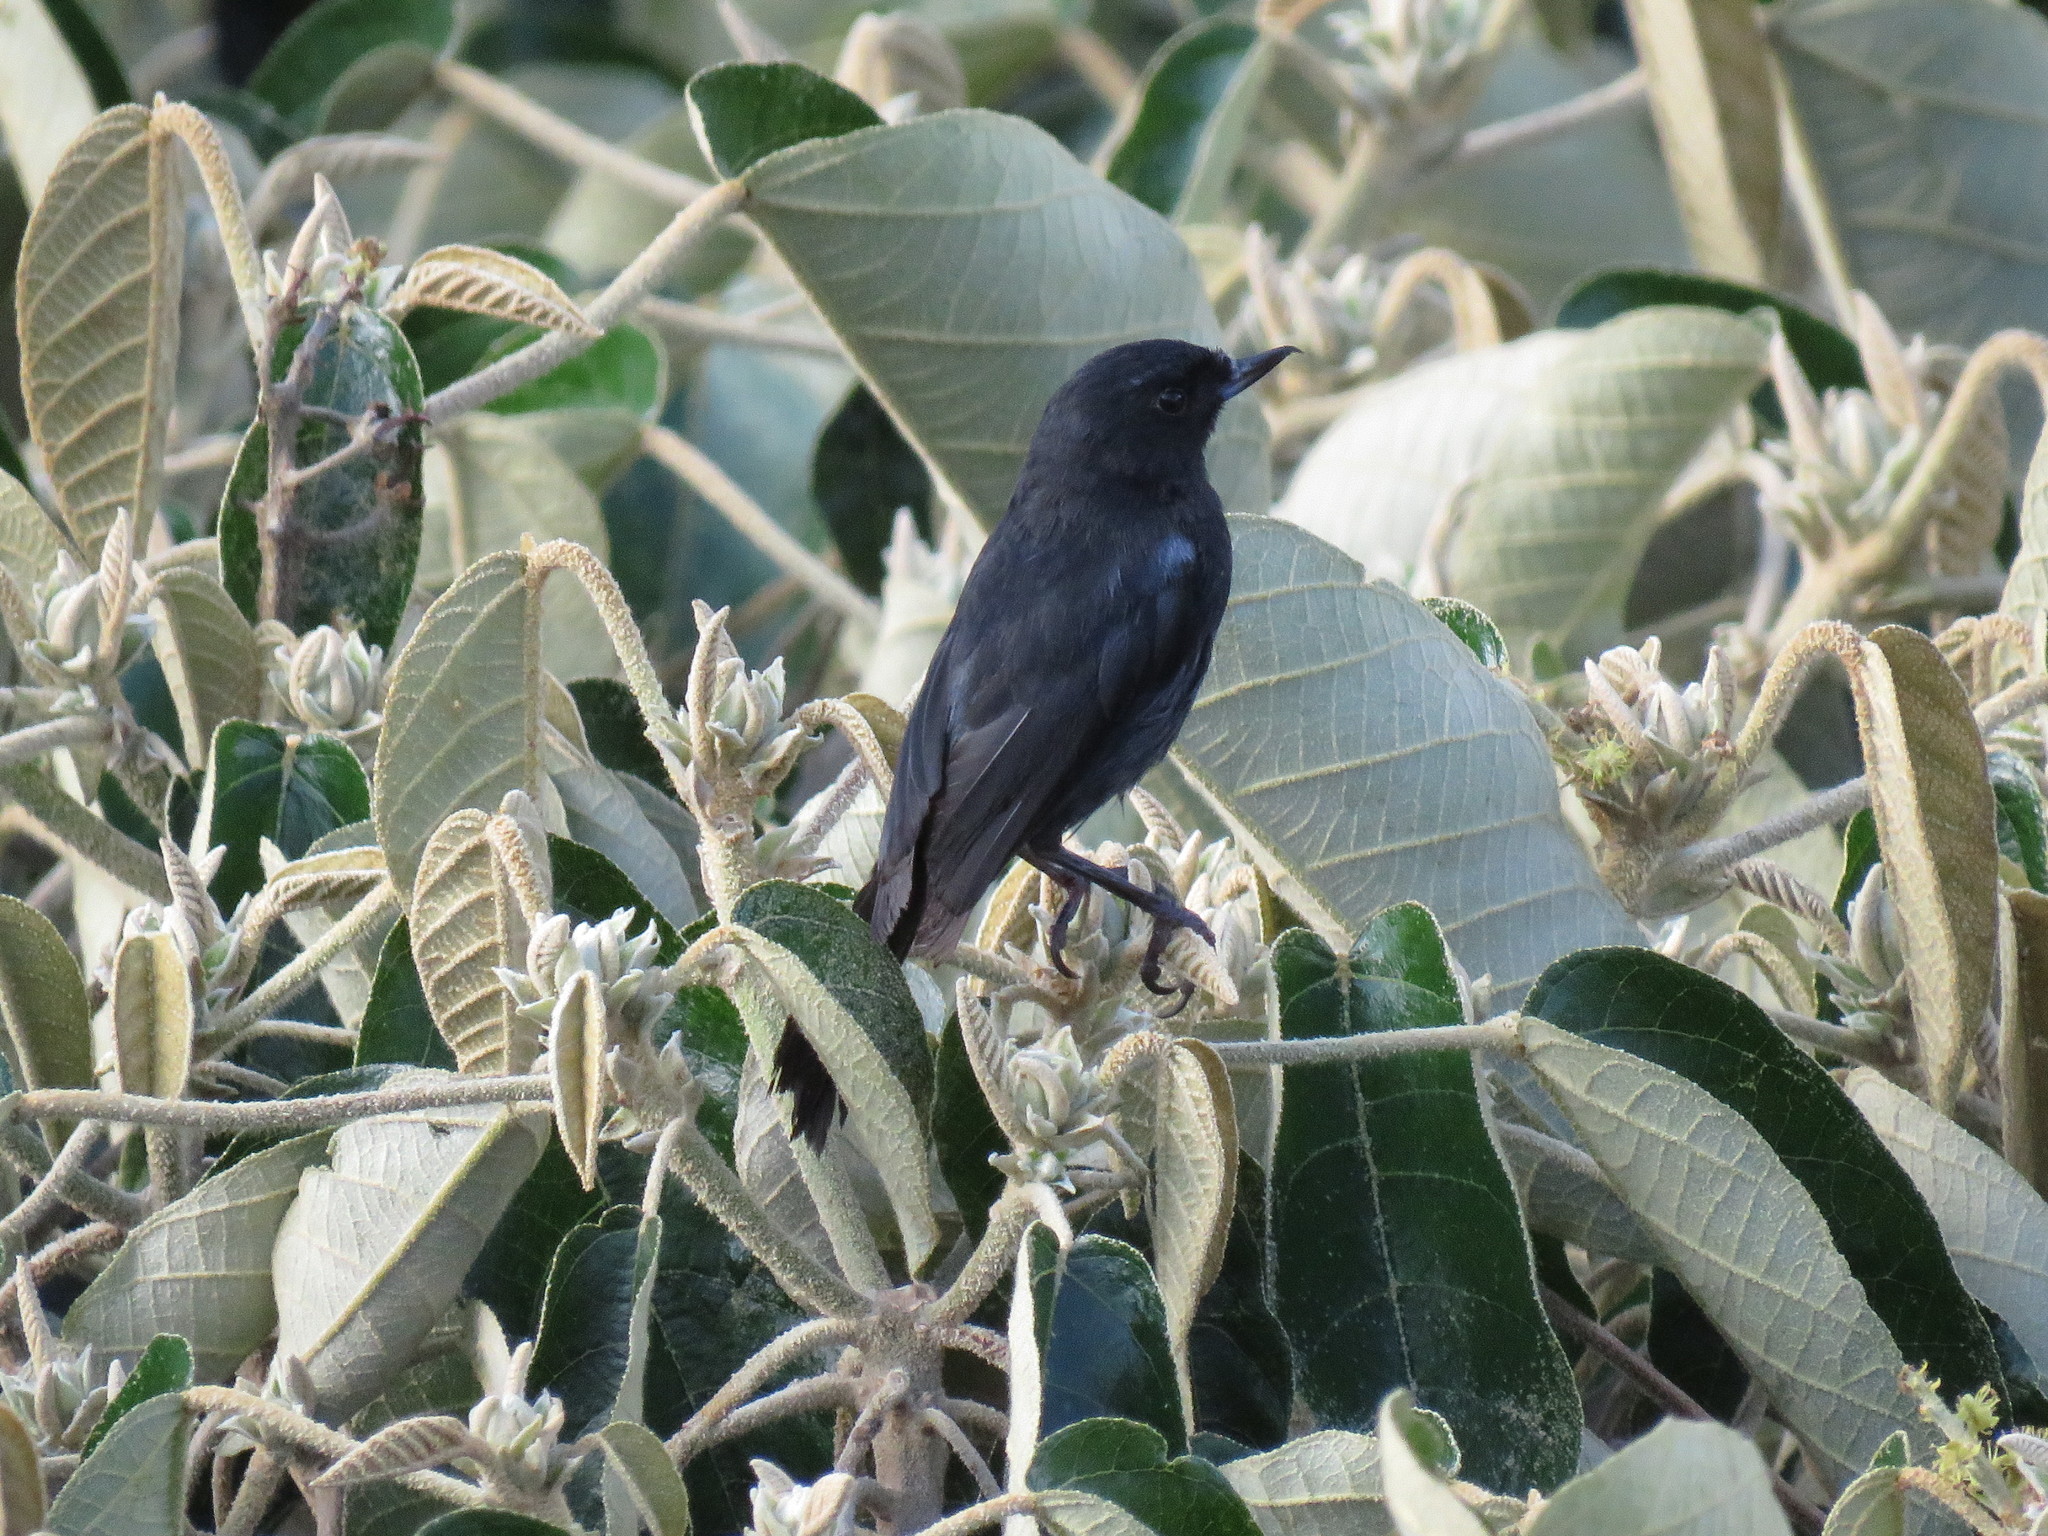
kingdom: Animalia
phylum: Chordata
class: Aves
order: Passeriformes
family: Thraupidae
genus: Diglossa
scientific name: Diglossa humeralis
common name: Black flowerpiercer
